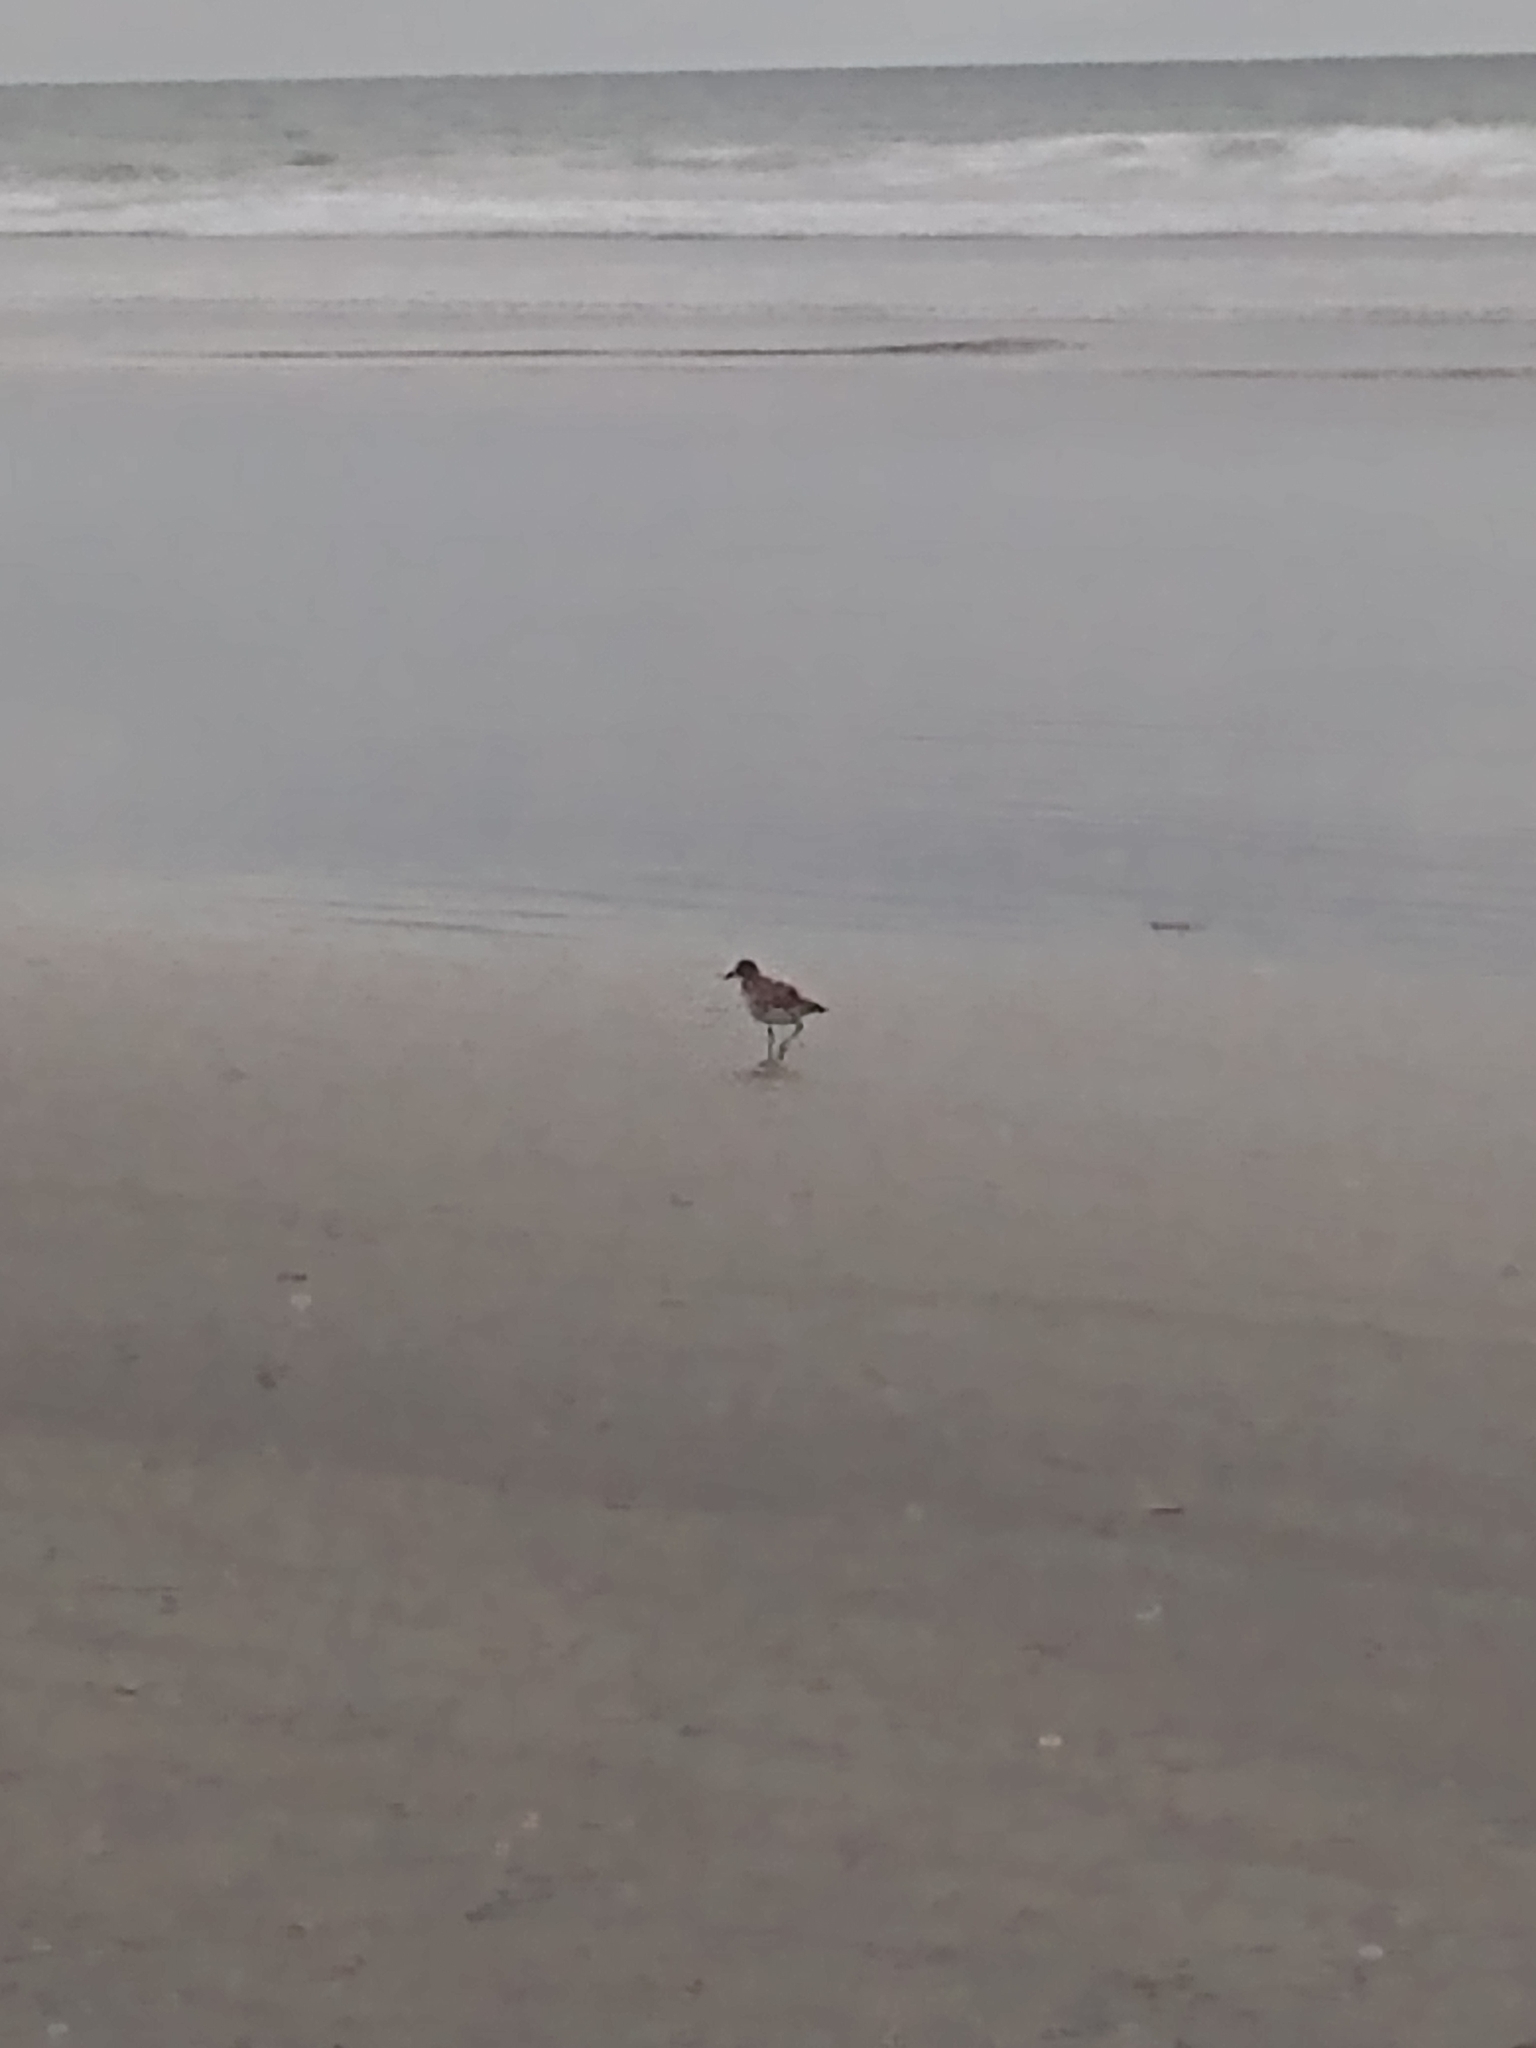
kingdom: Animalia
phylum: Chordata
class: Aves
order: Charadriiformes
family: Charadriidae
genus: Pluvialis
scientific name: Pluvialis squatarola
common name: Grey plover
